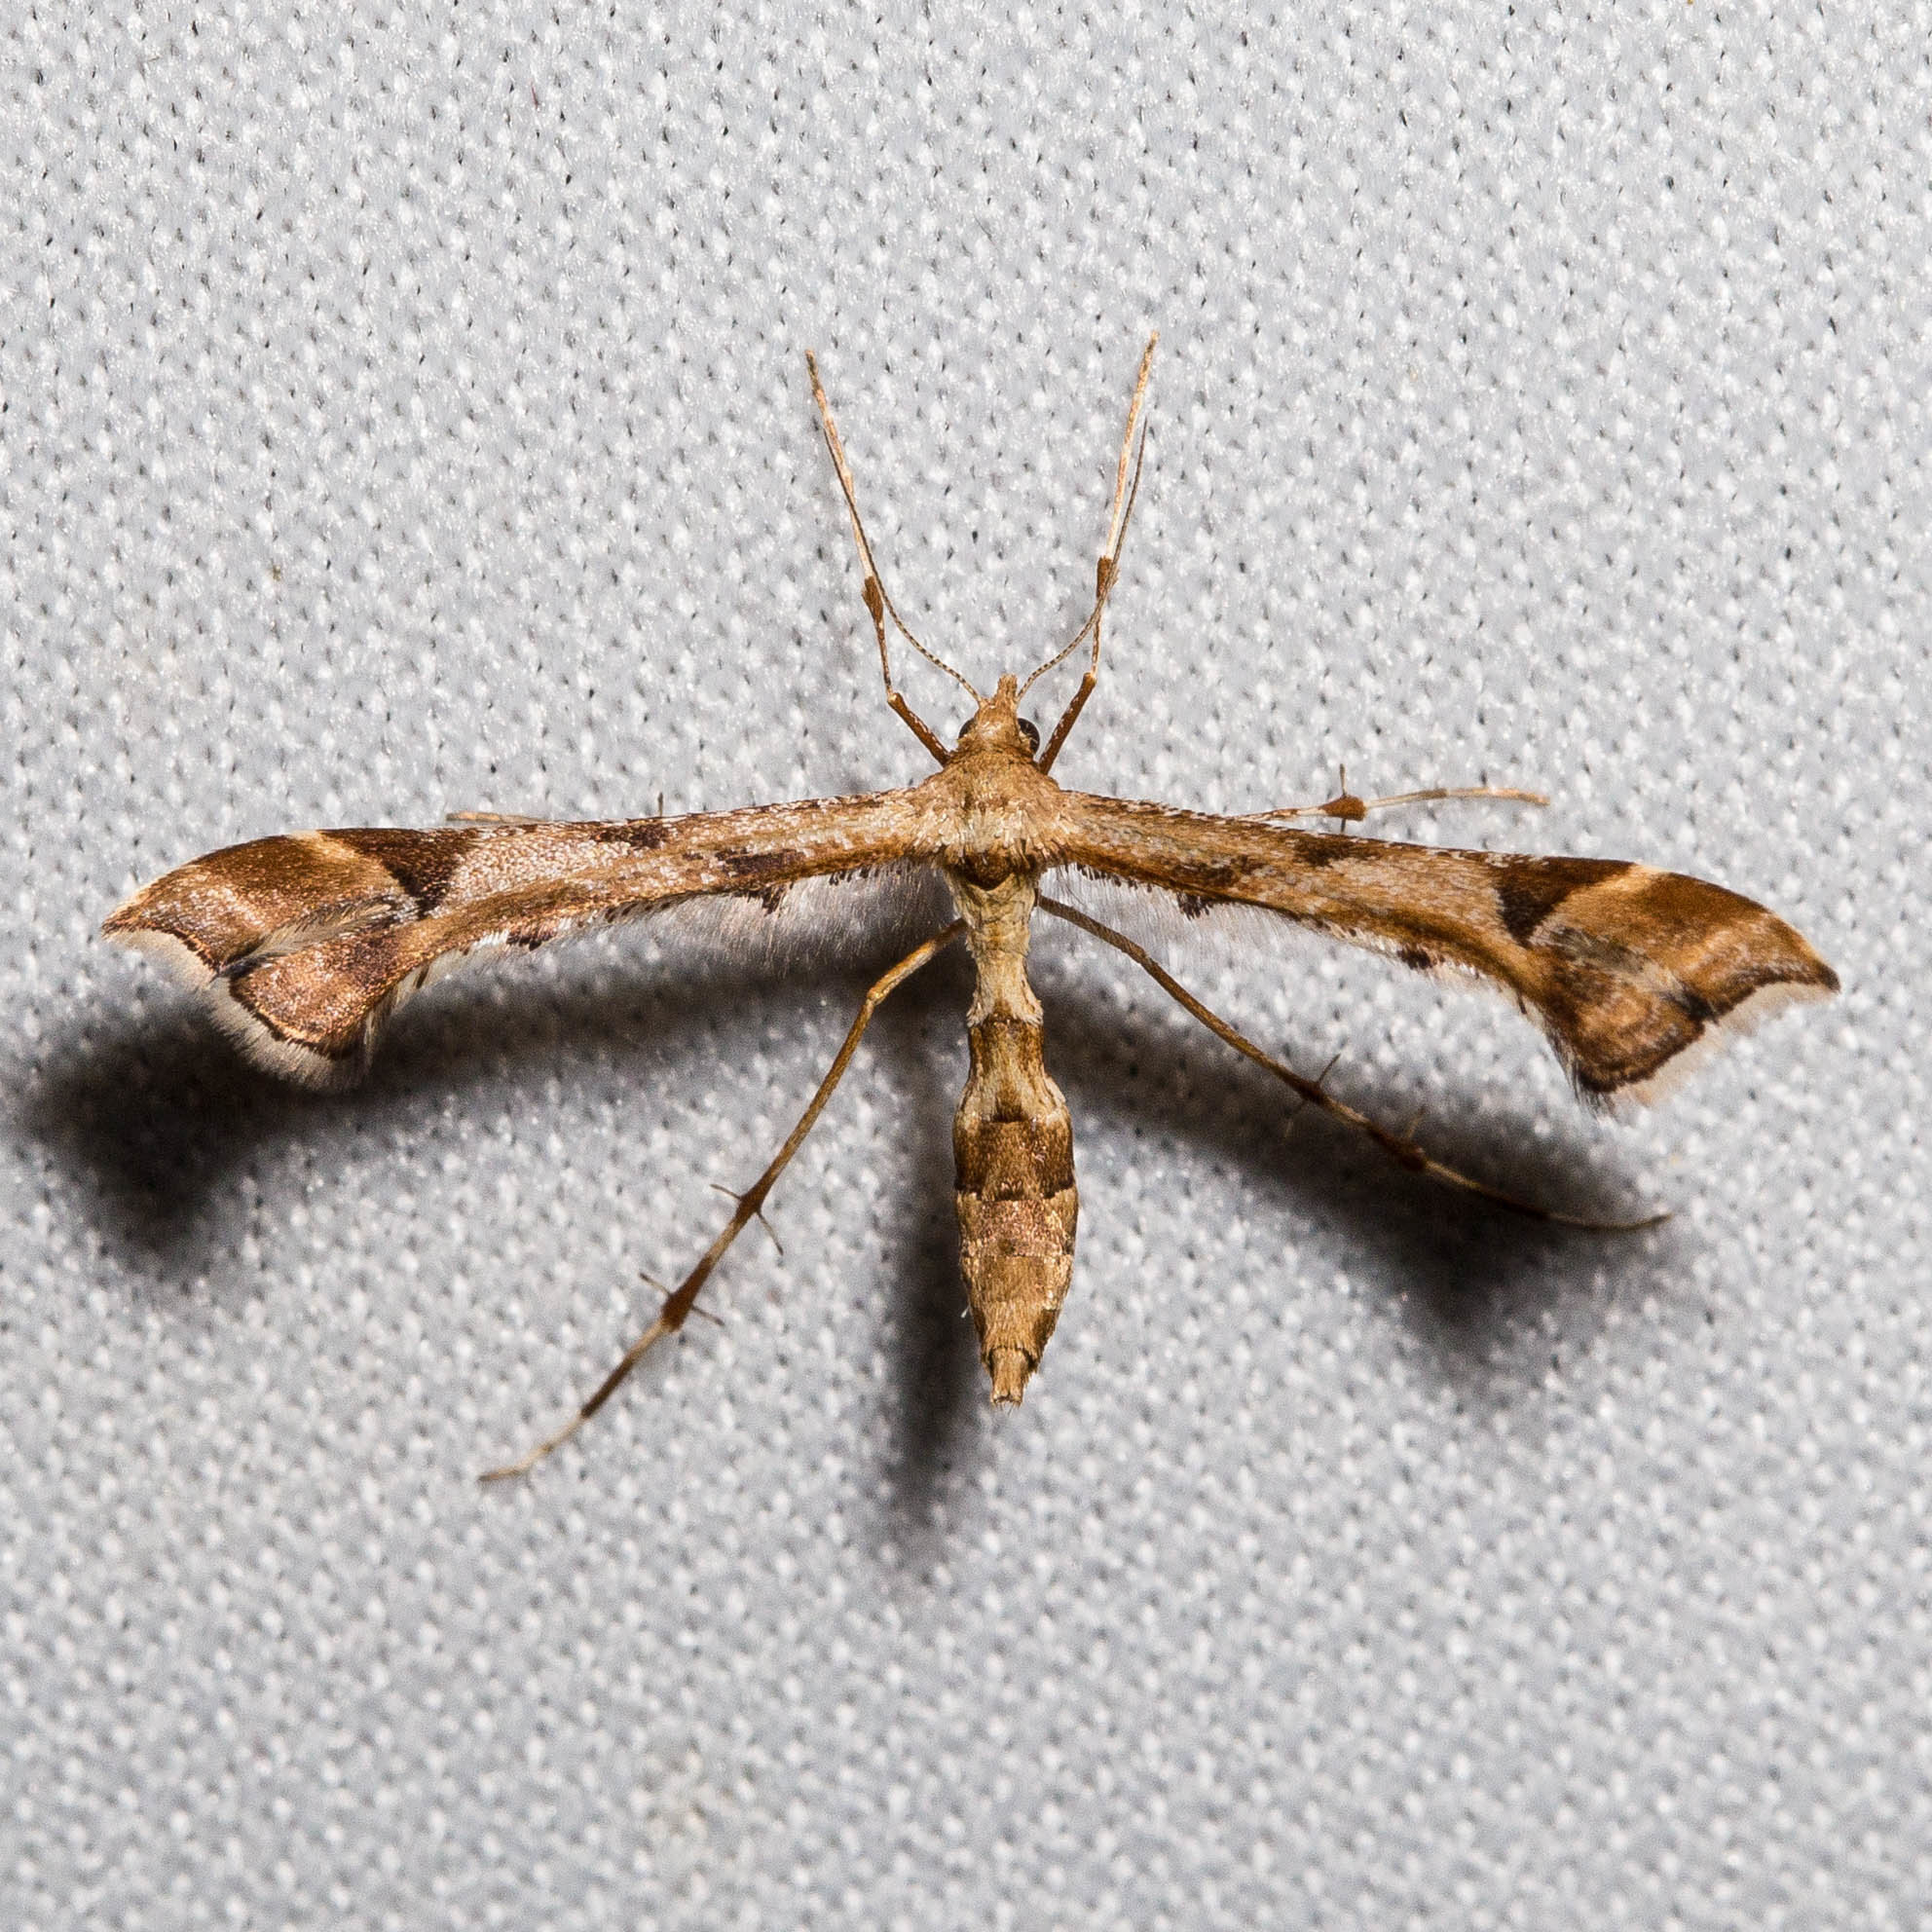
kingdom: Animalia
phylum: Arthropoda
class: Insecta
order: Lepidoptera
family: Pterophoridae
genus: Platyptilia
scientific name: Platyptilia carduidactylus
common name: Artichoke plume moth
